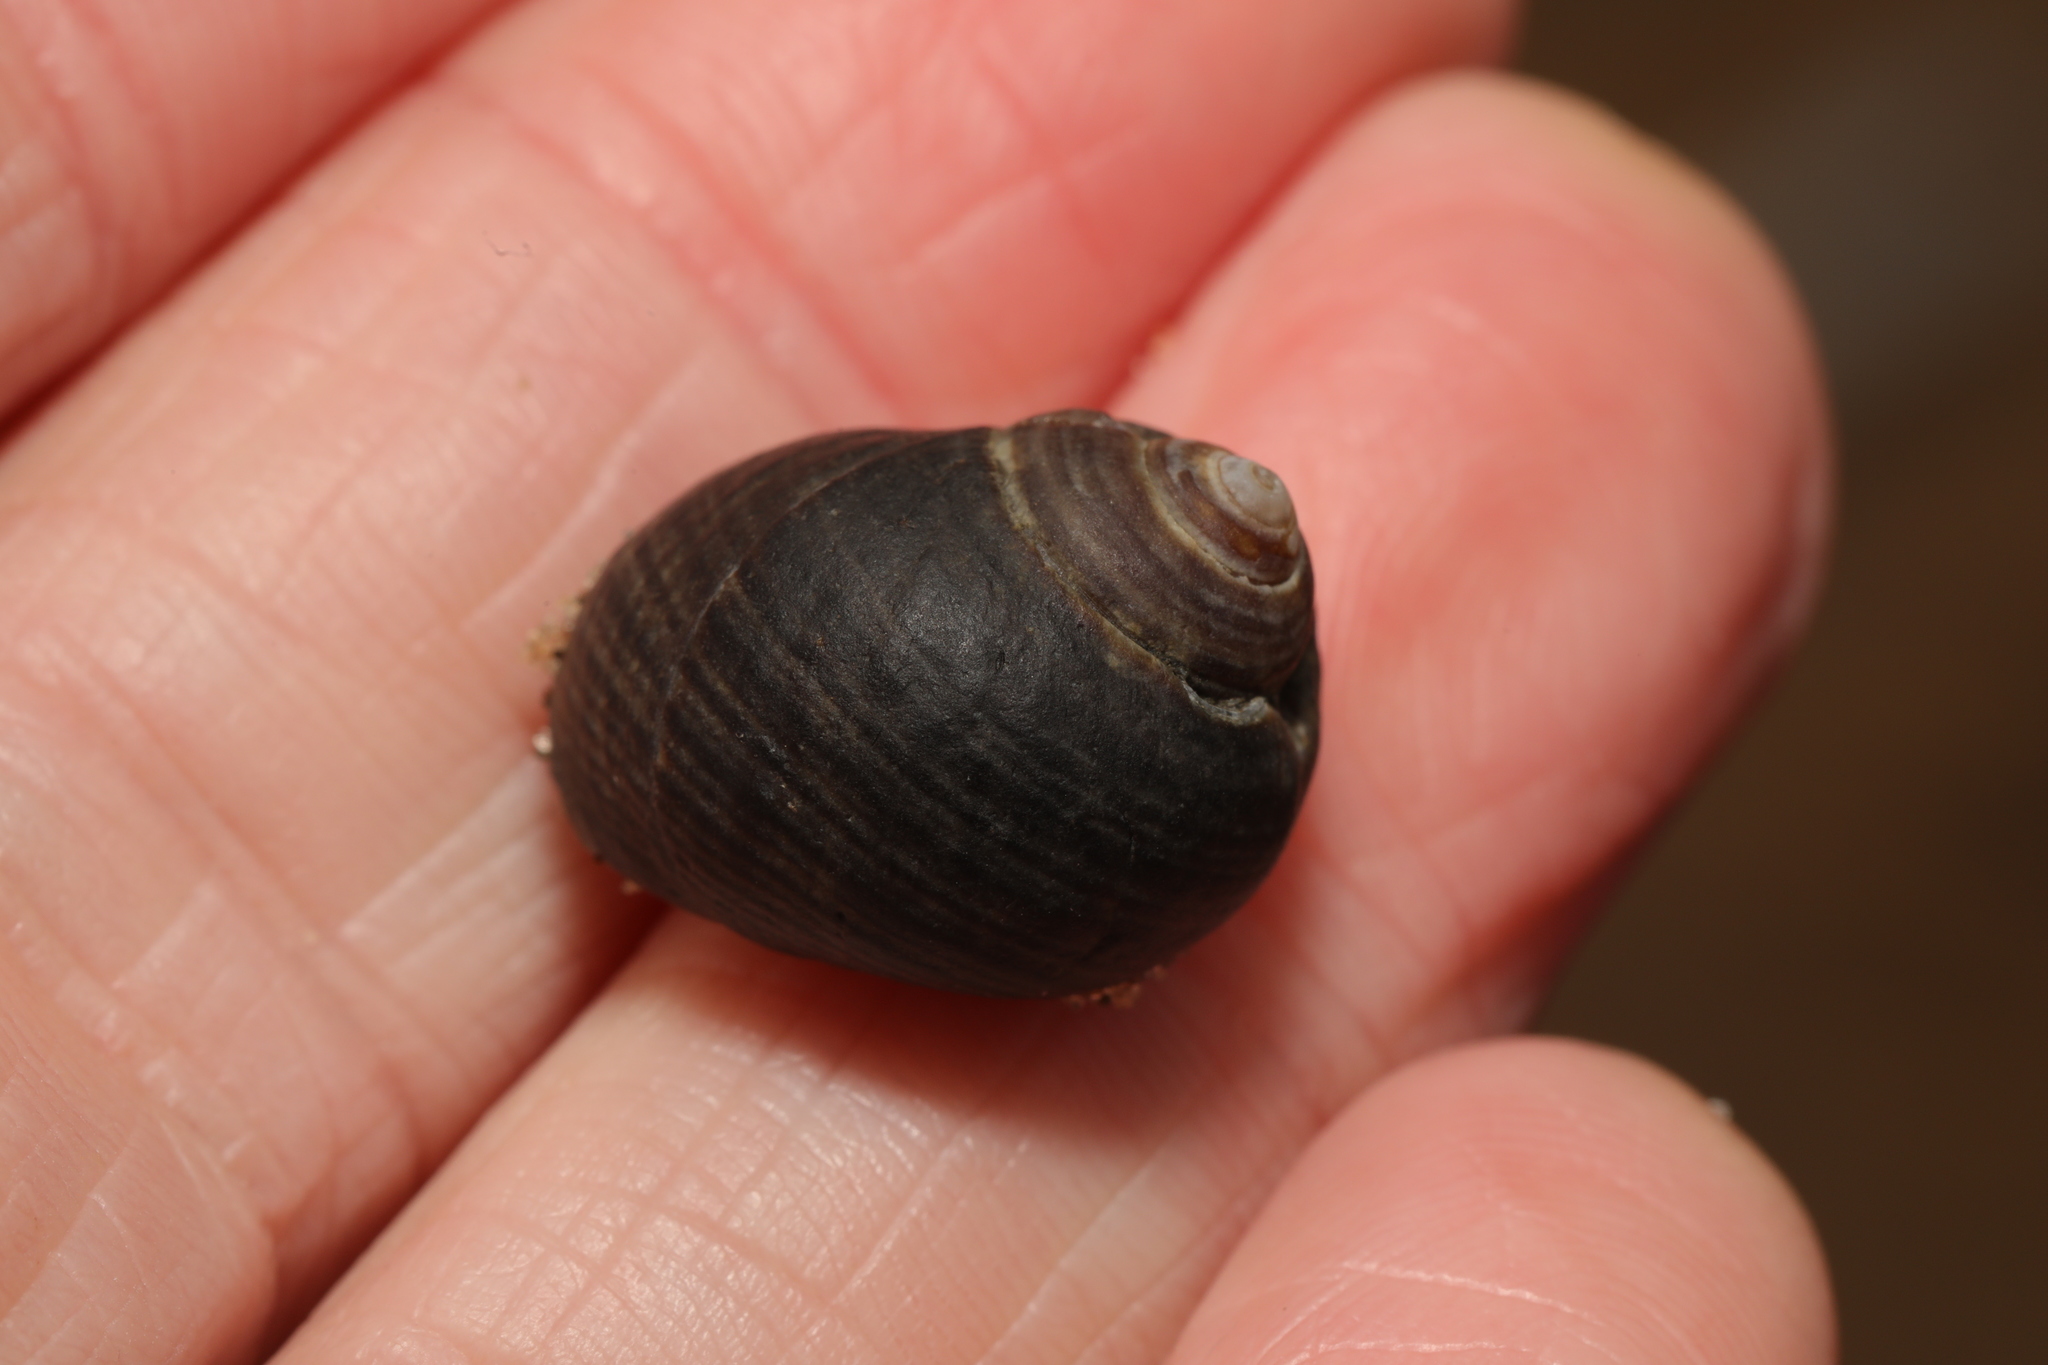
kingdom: Animalia
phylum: Mollusca
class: Gastropoda
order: Littorinimorpha
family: Littorinidae
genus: Littorina
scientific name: Littorina littorea
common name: Common periwinkle
